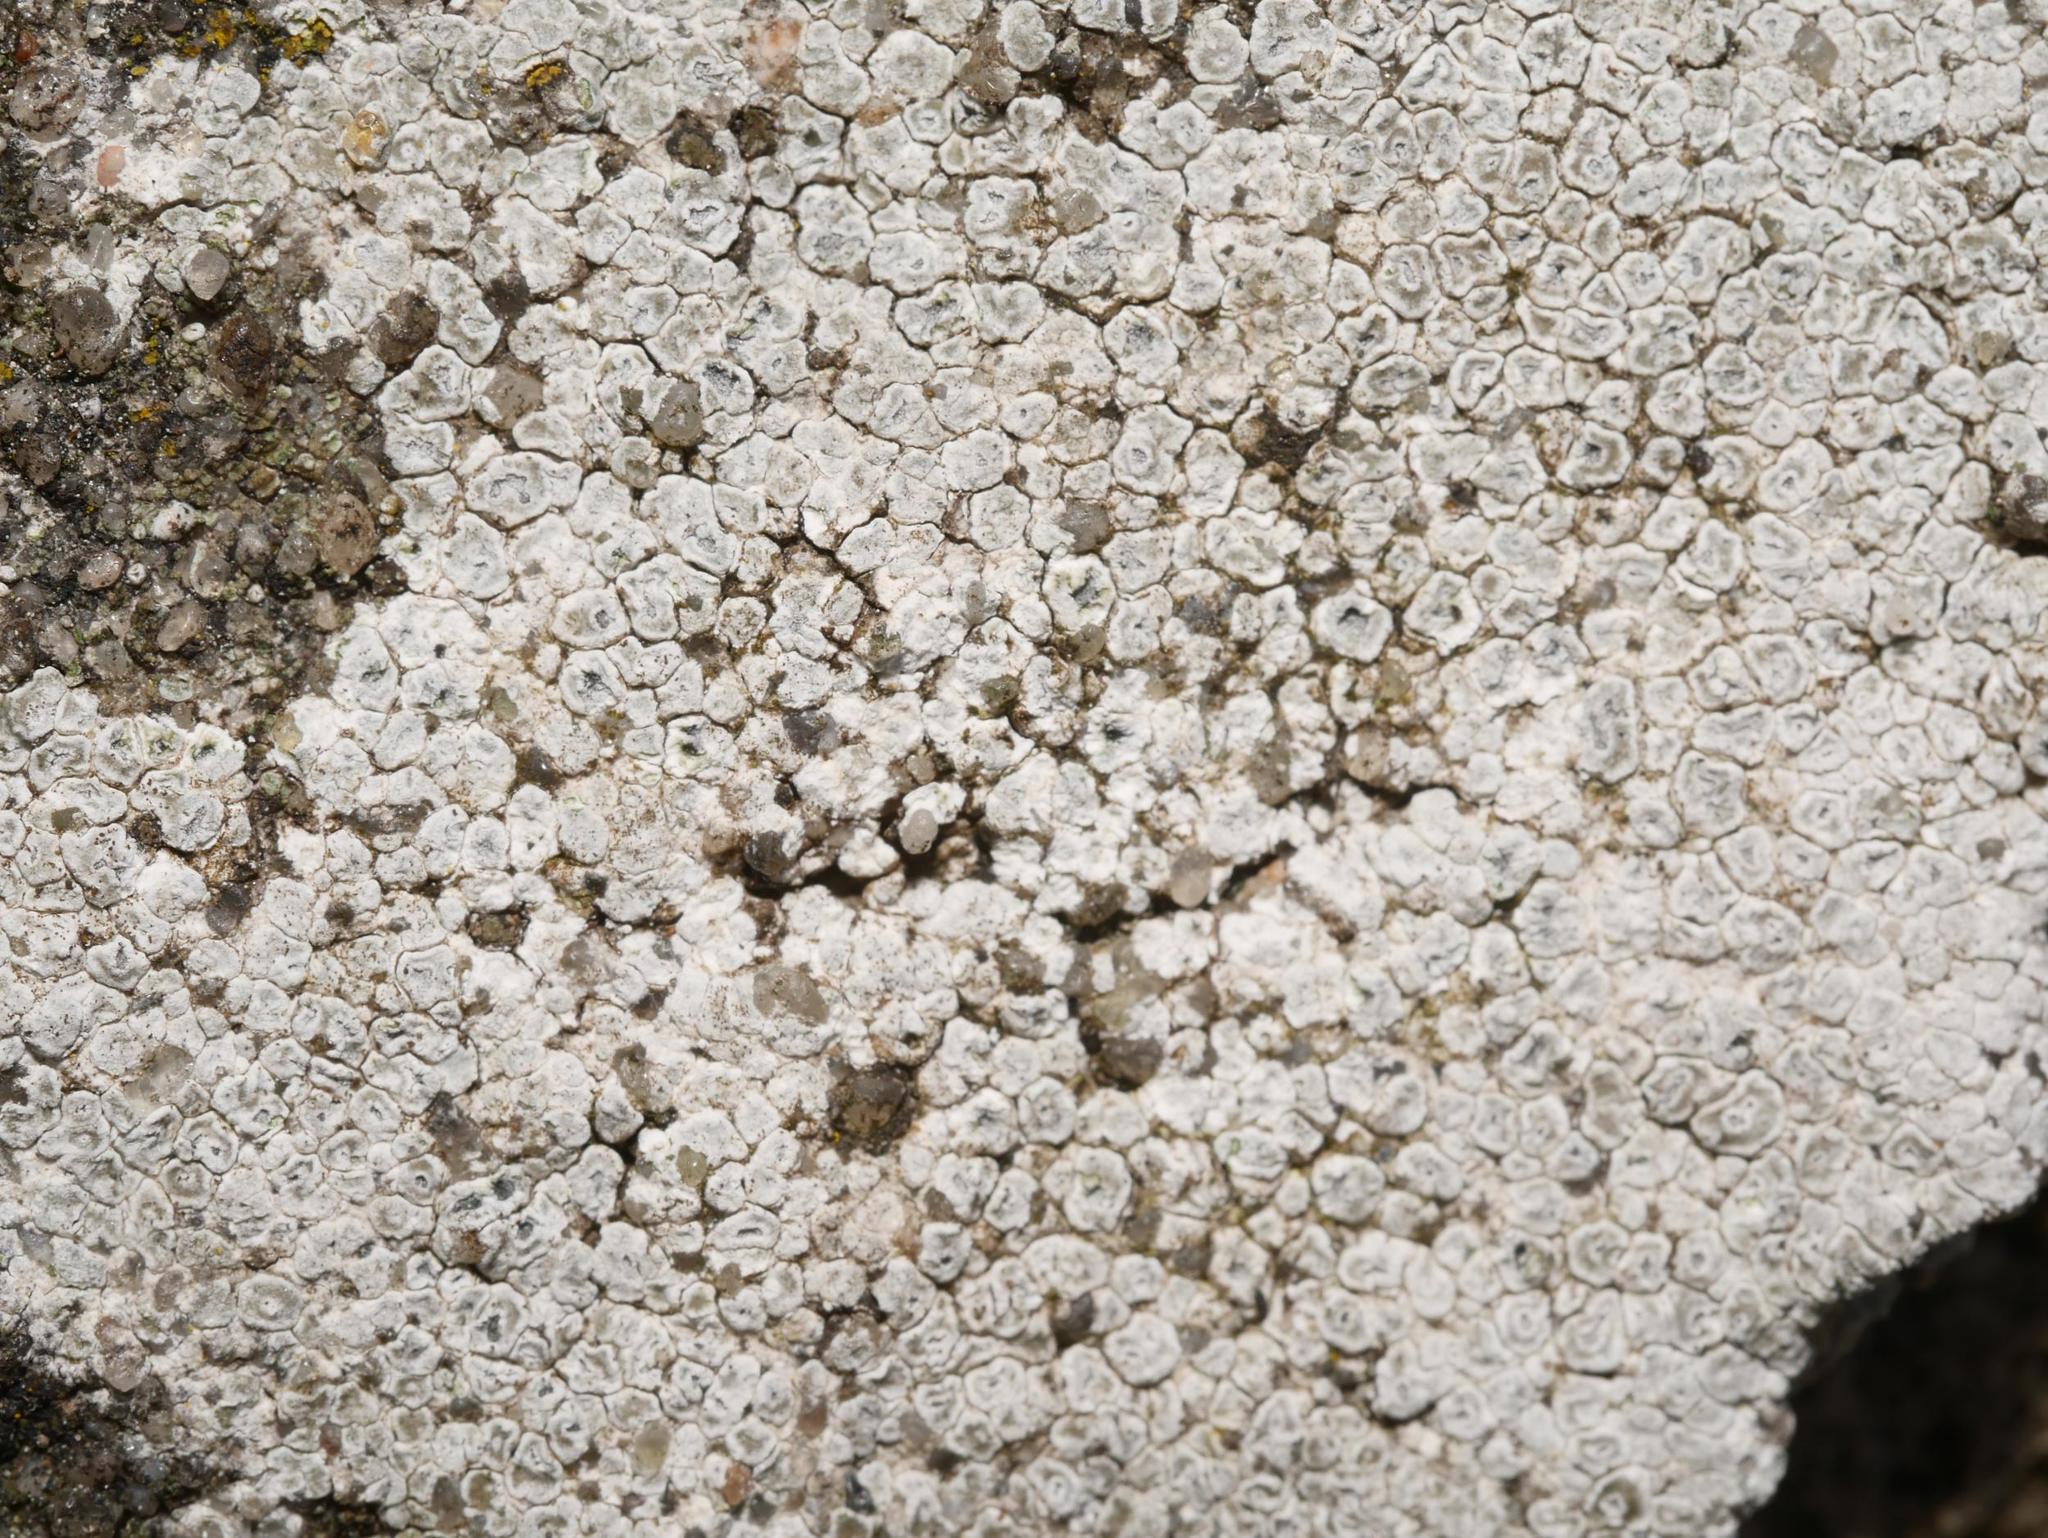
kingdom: Fungi
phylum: Ascomycota
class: Lecanoromycetes
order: Pertusariales
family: Megasporaceae
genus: Circinaria
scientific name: Circinaria contorta
